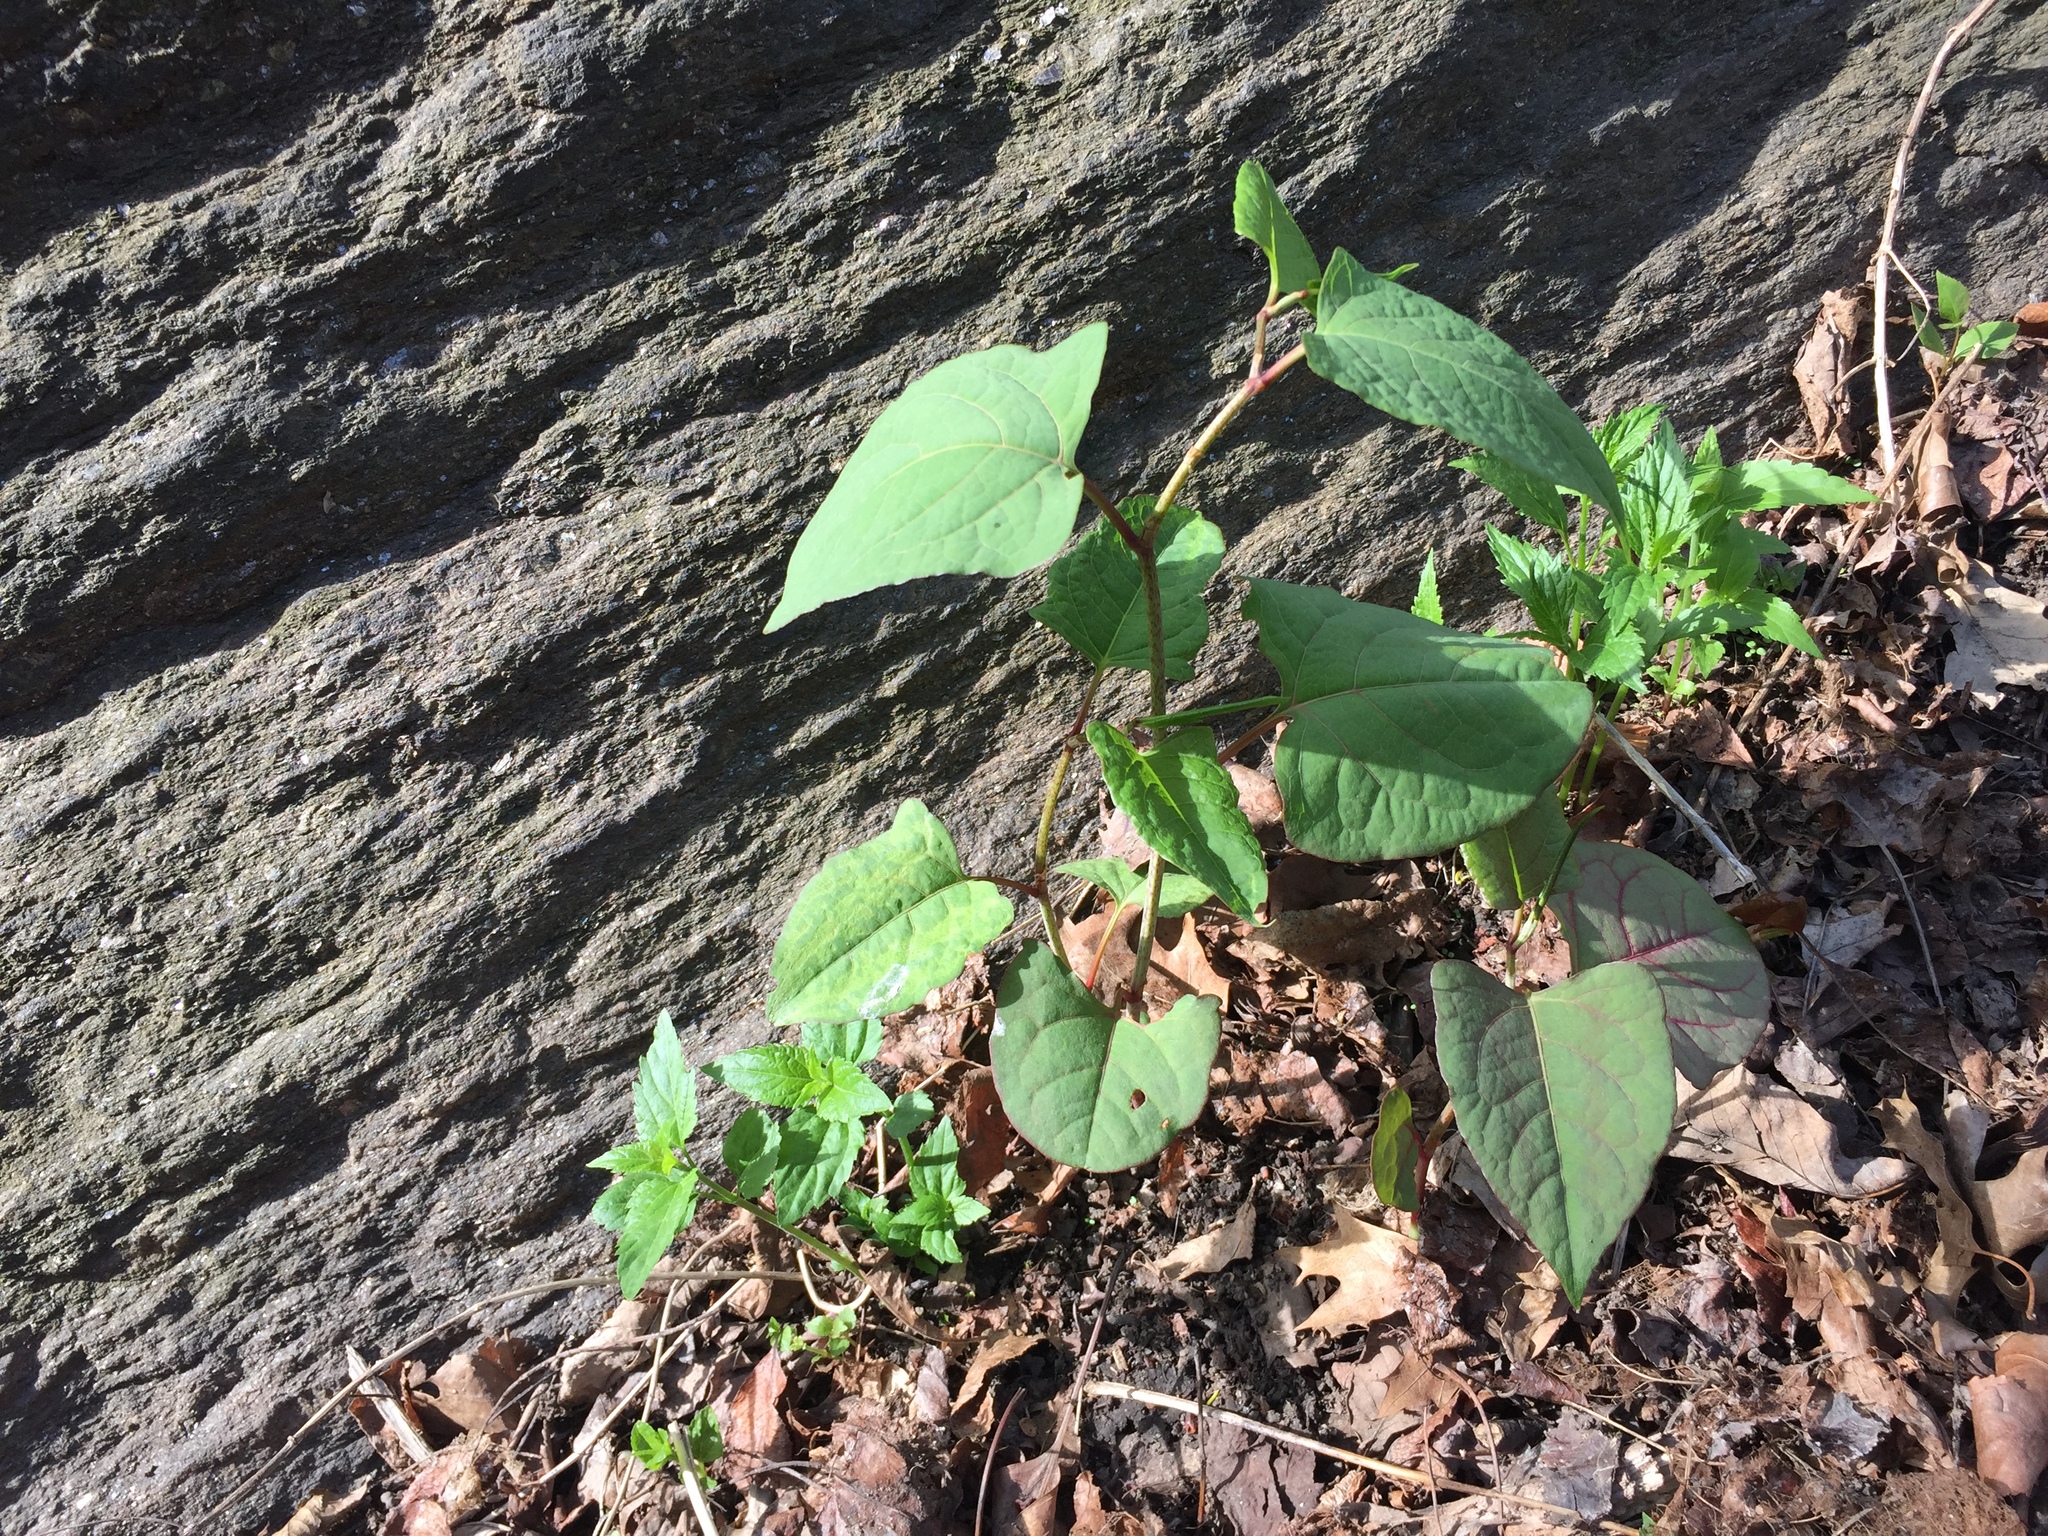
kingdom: Plantae
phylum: Tracheophyta
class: Magnoliopsida
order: Caryophyllales
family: Polygonaceae
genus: Reynoutria
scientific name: Reynoutria japonica
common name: Japanese knotweed
